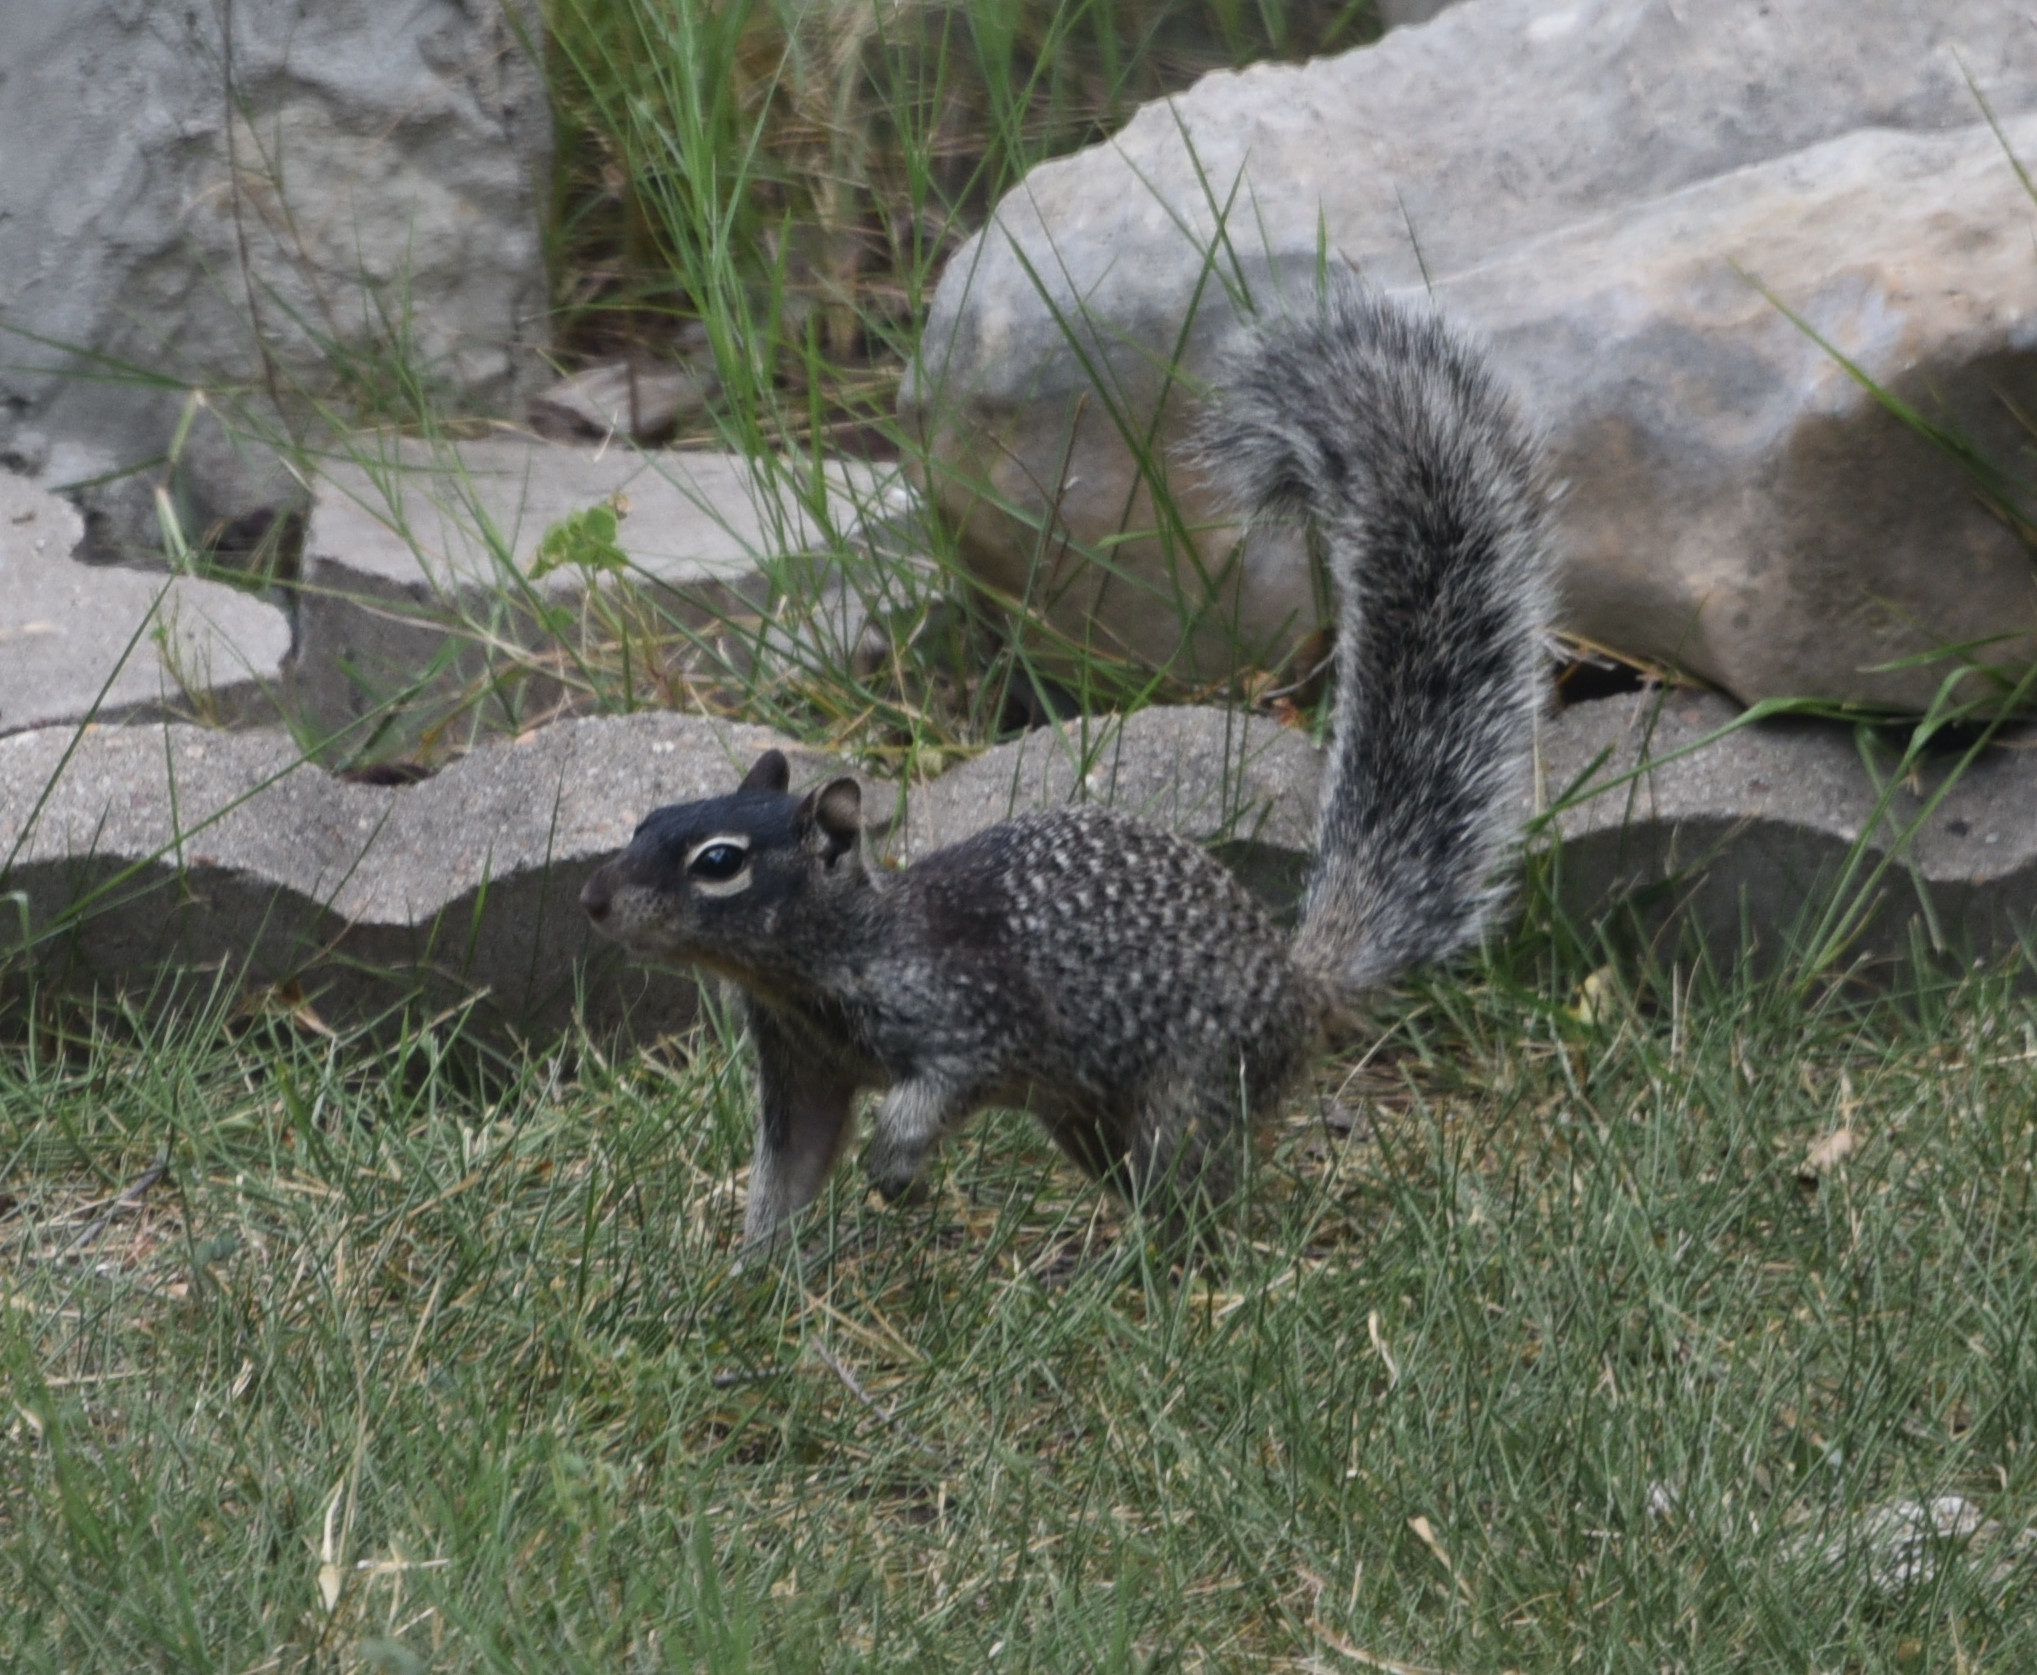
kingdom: Animalia
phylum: Chordata
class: Mammalia
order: Rodentia
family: Sciuridae
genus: Otospermophilus
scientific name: Otospermophilus variegatus
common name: Rock squirrel
